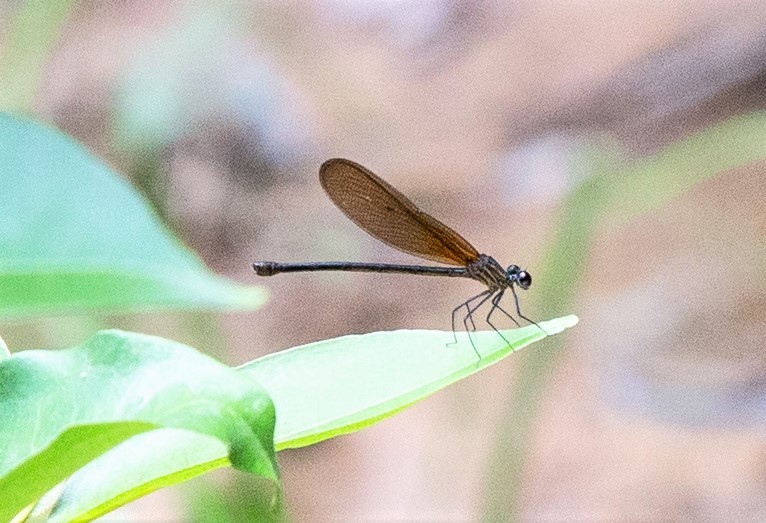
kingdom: Animalia
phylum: Arthropoda
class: Insecta
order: Odonata
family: Calopterygidae
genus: Hetaerina
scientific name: Hetaerina moribunda
